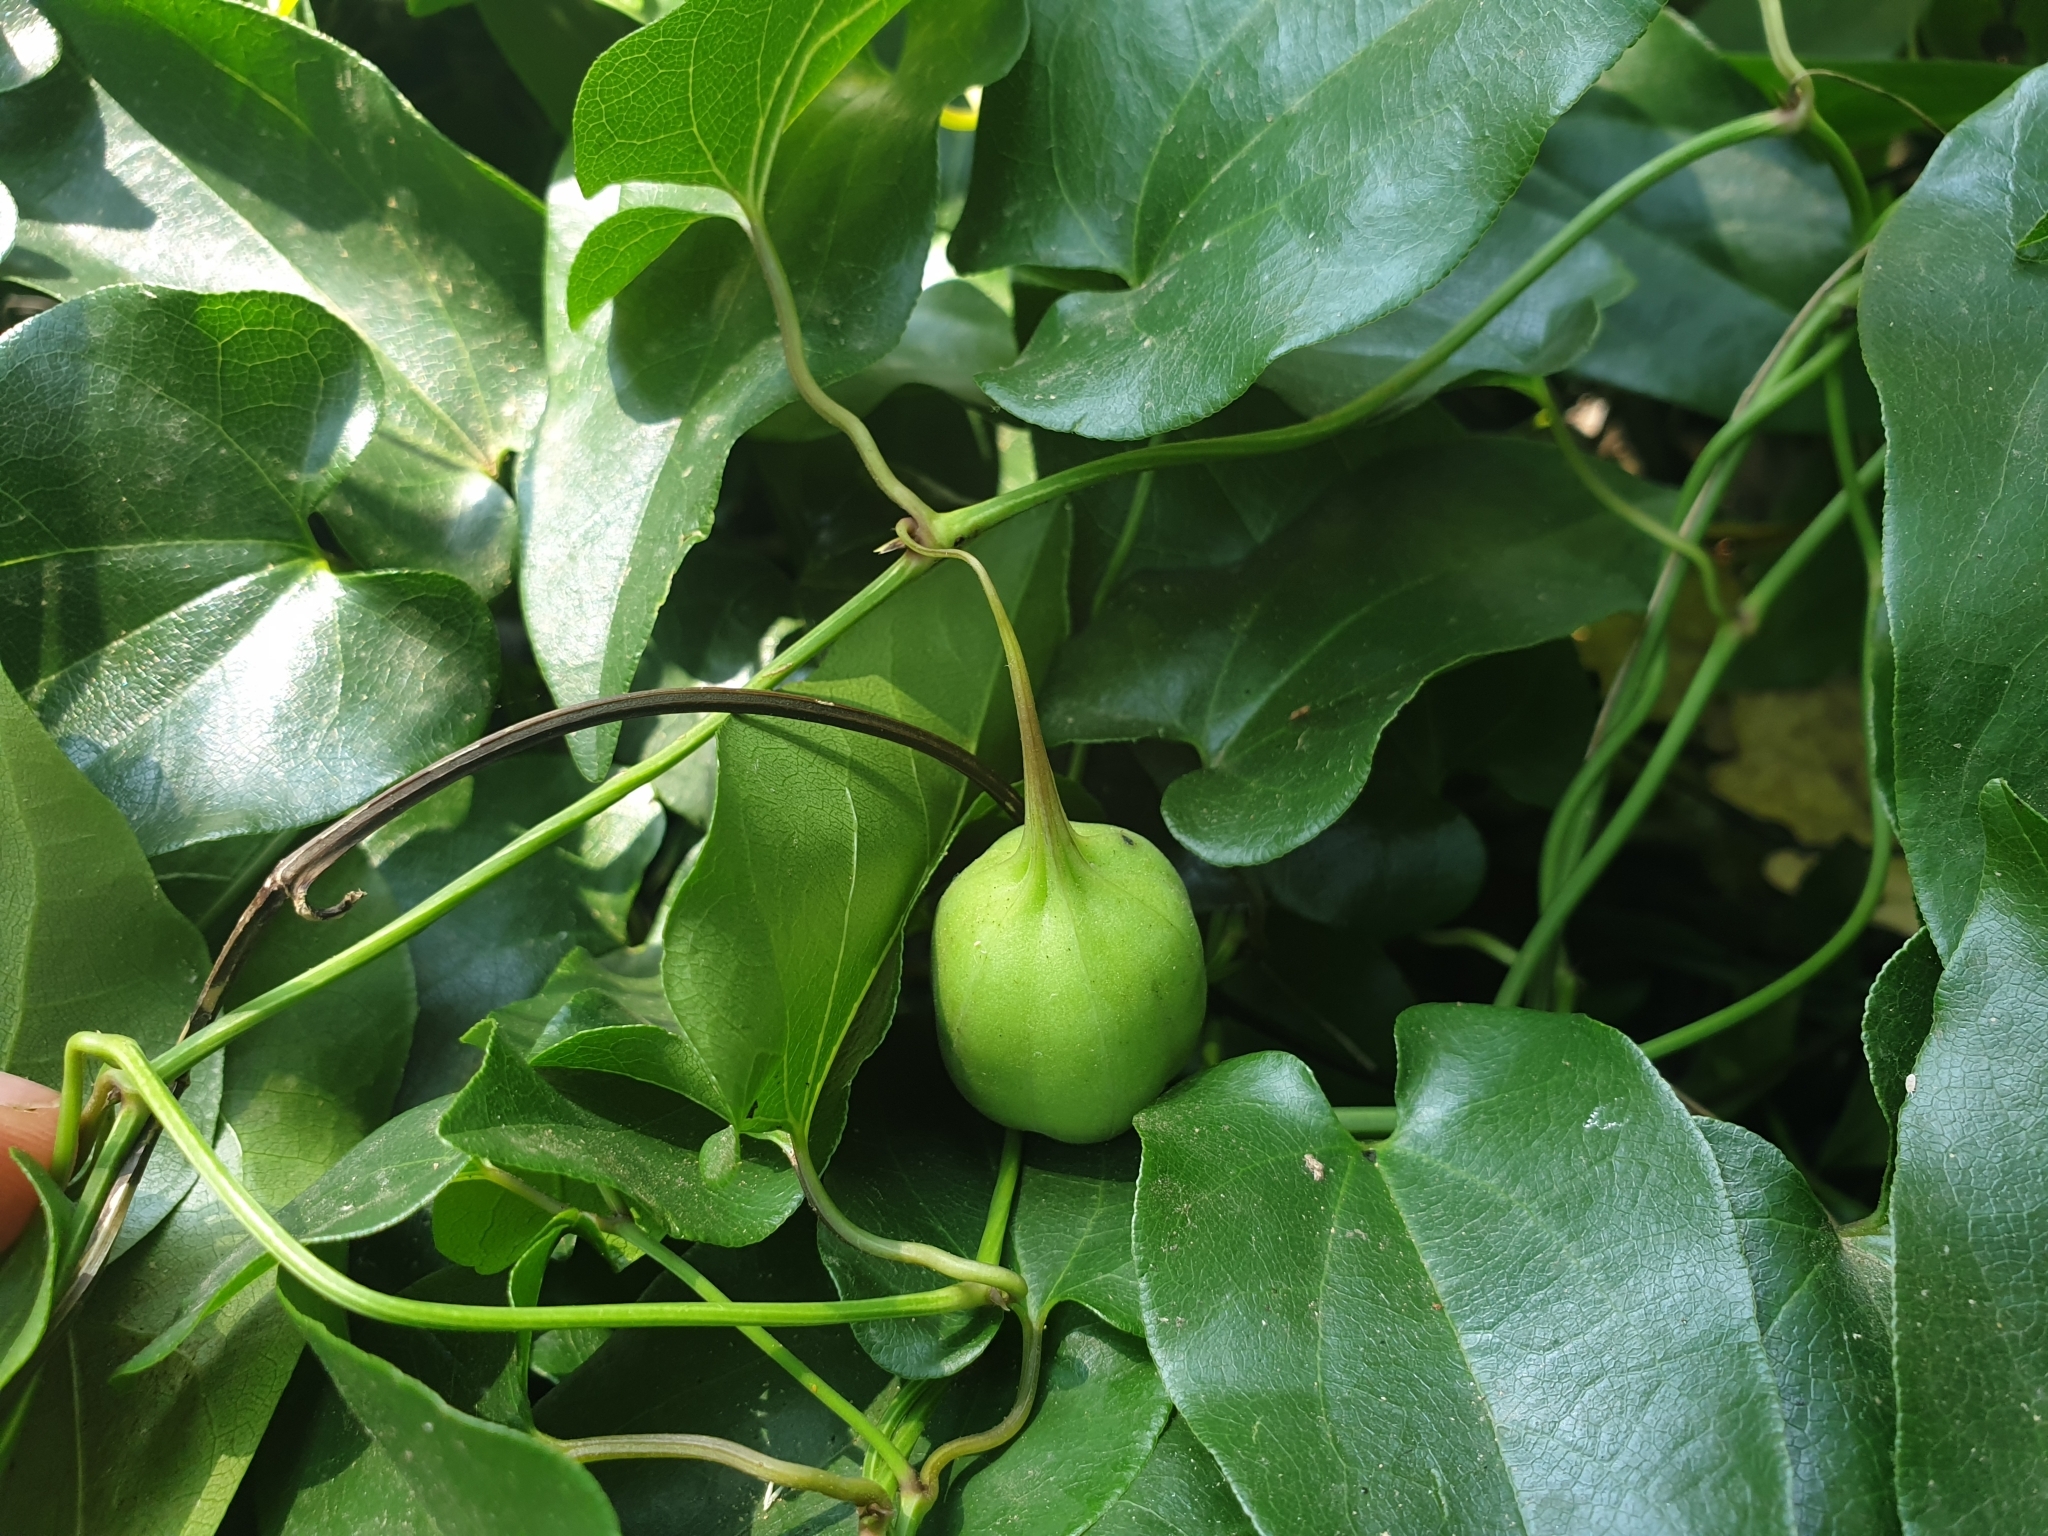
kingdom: Plantae
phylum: Tracheophyta
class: Magnoliopsida
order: Piperales
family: Aristolochiaceae
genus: Aristolochia
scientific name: Aristolochia sempervirens
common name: Long birthwort
